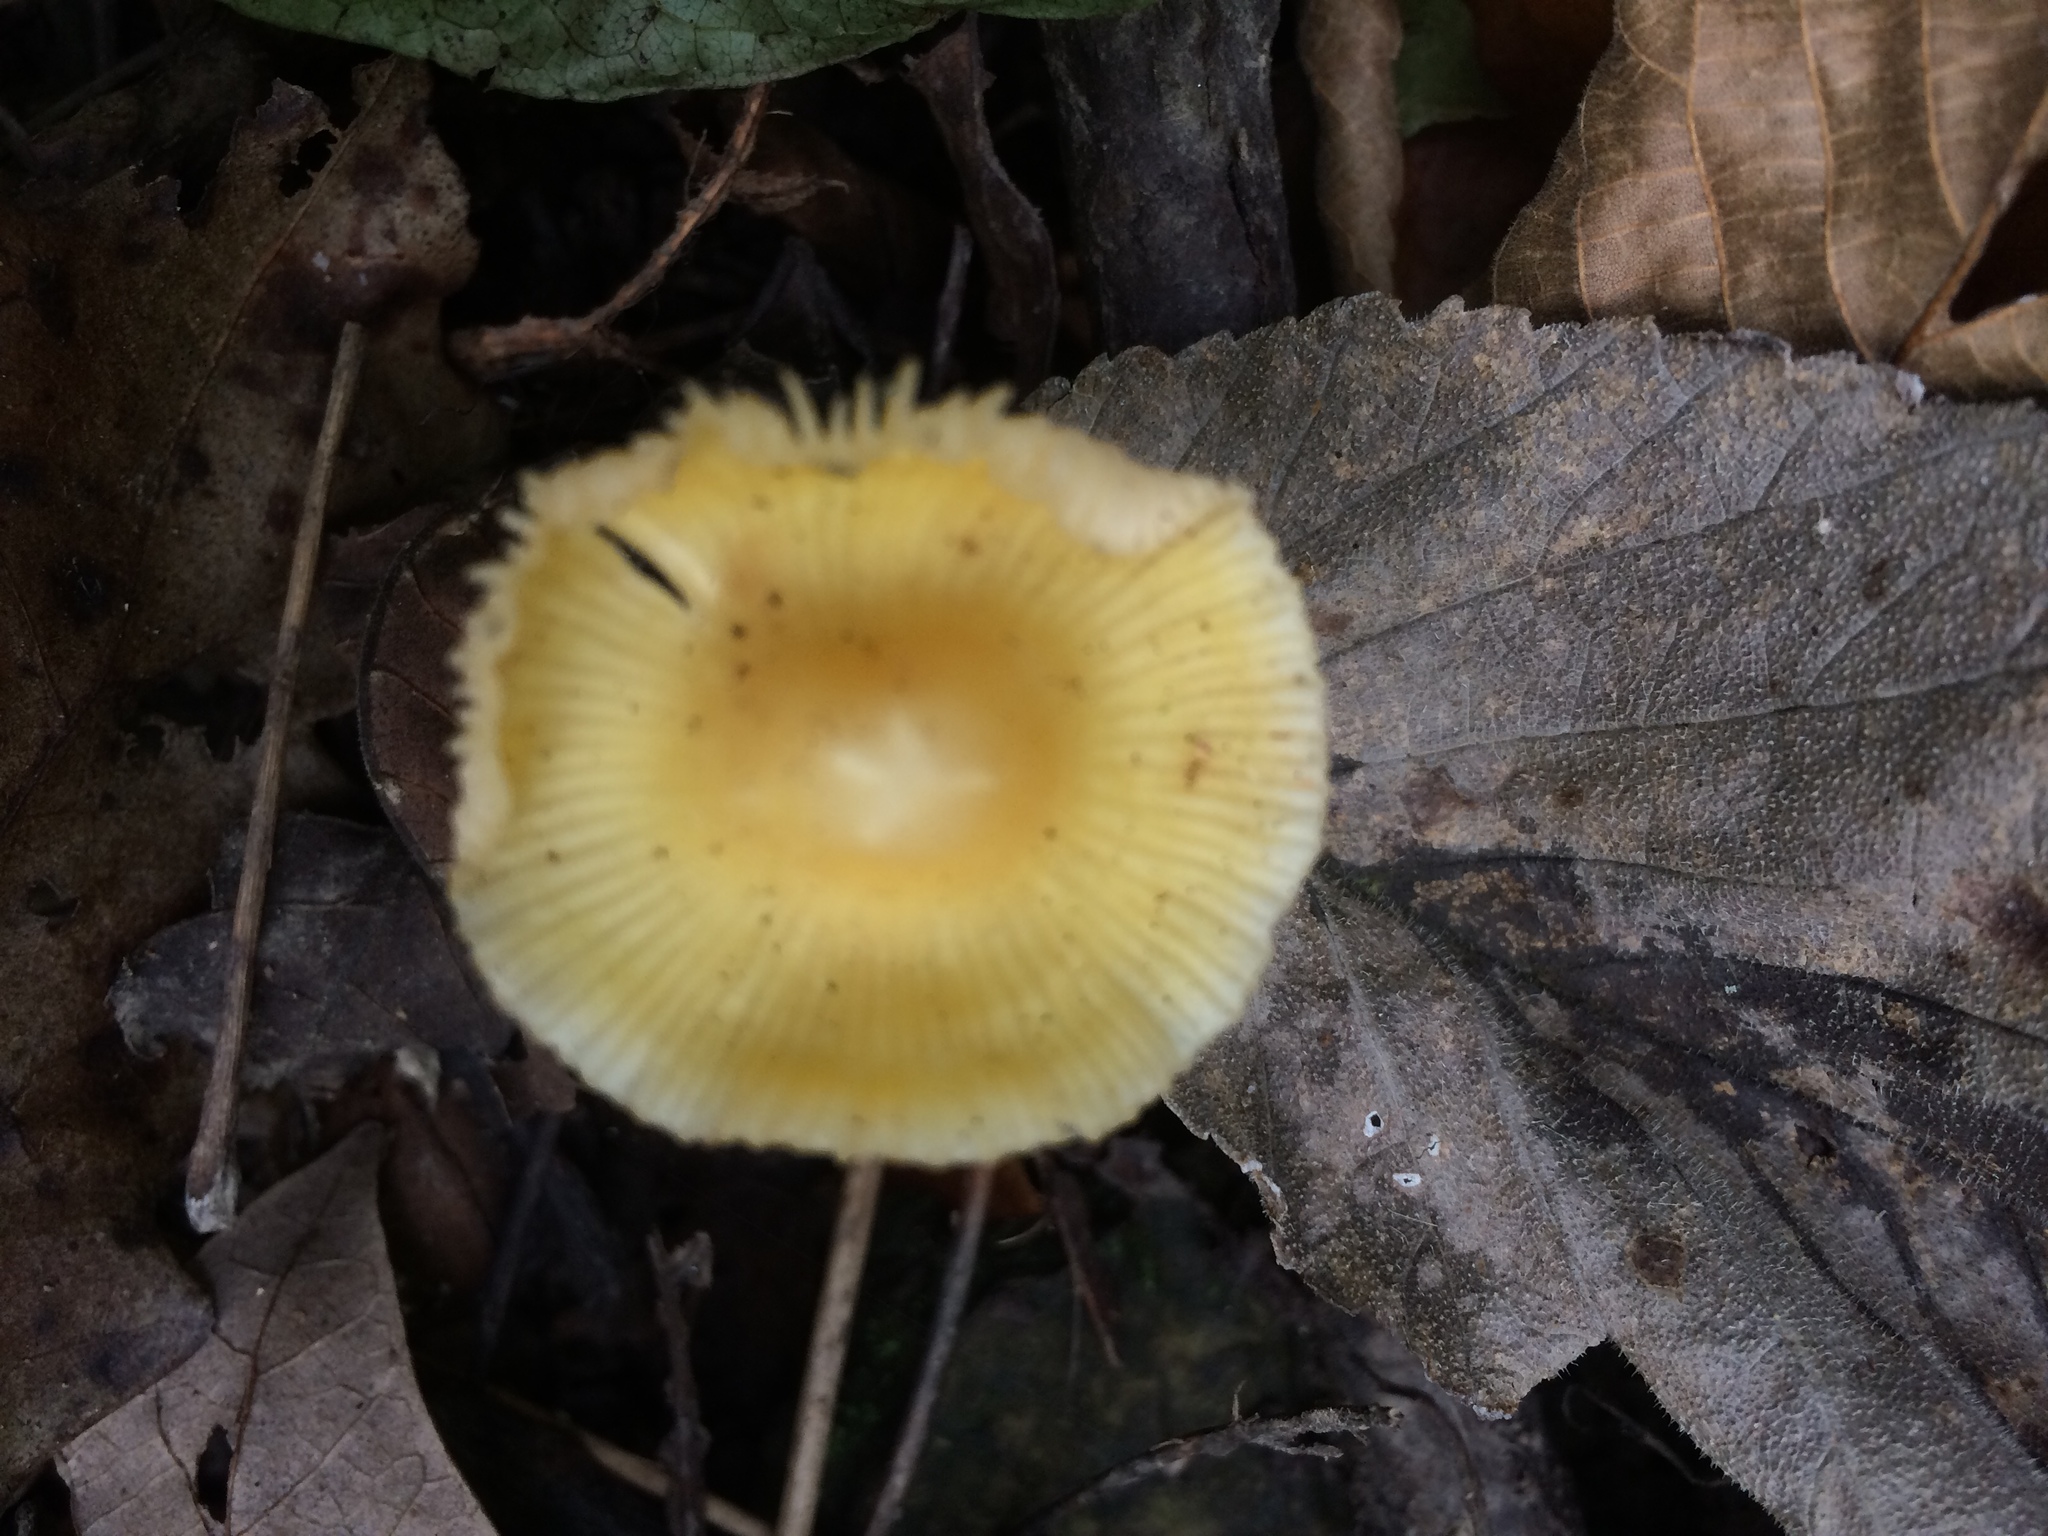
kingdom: Fungi
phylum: Basidiomycota
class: Agaricomycetes
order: Agaricales
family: Mycenaceae
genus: Mycena
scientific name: Mycena crocea
